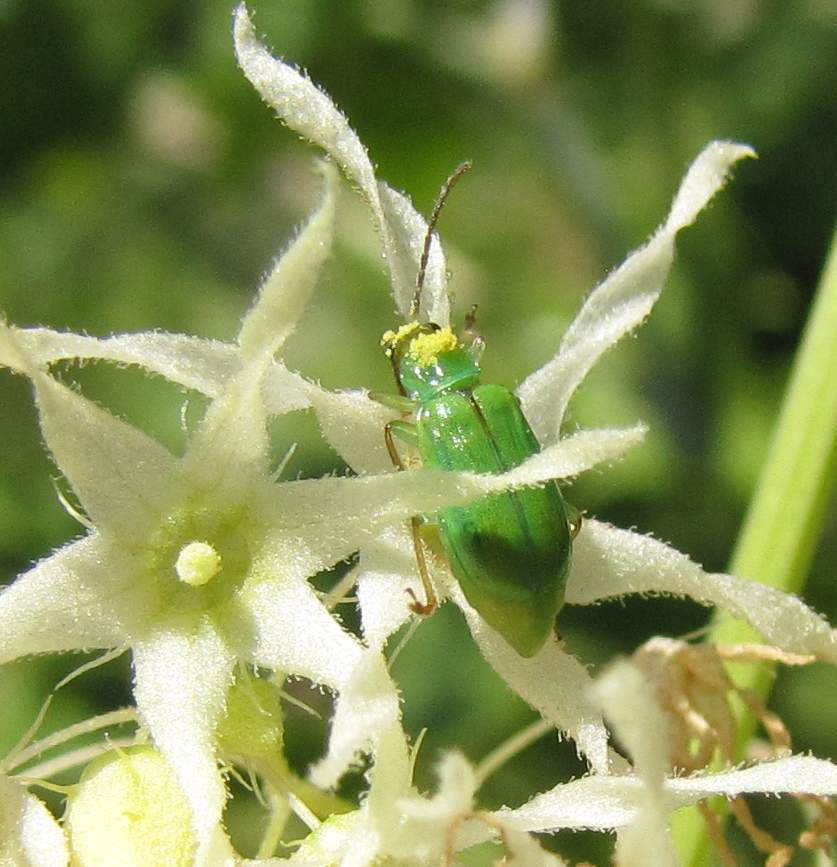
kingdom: Animalia
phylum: Arthropoda
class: Insecta
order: Coleoptera
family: Chrysomelidae
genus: Diabrotica
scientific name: Diabrotica barberi
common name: Northern corn rootworm
